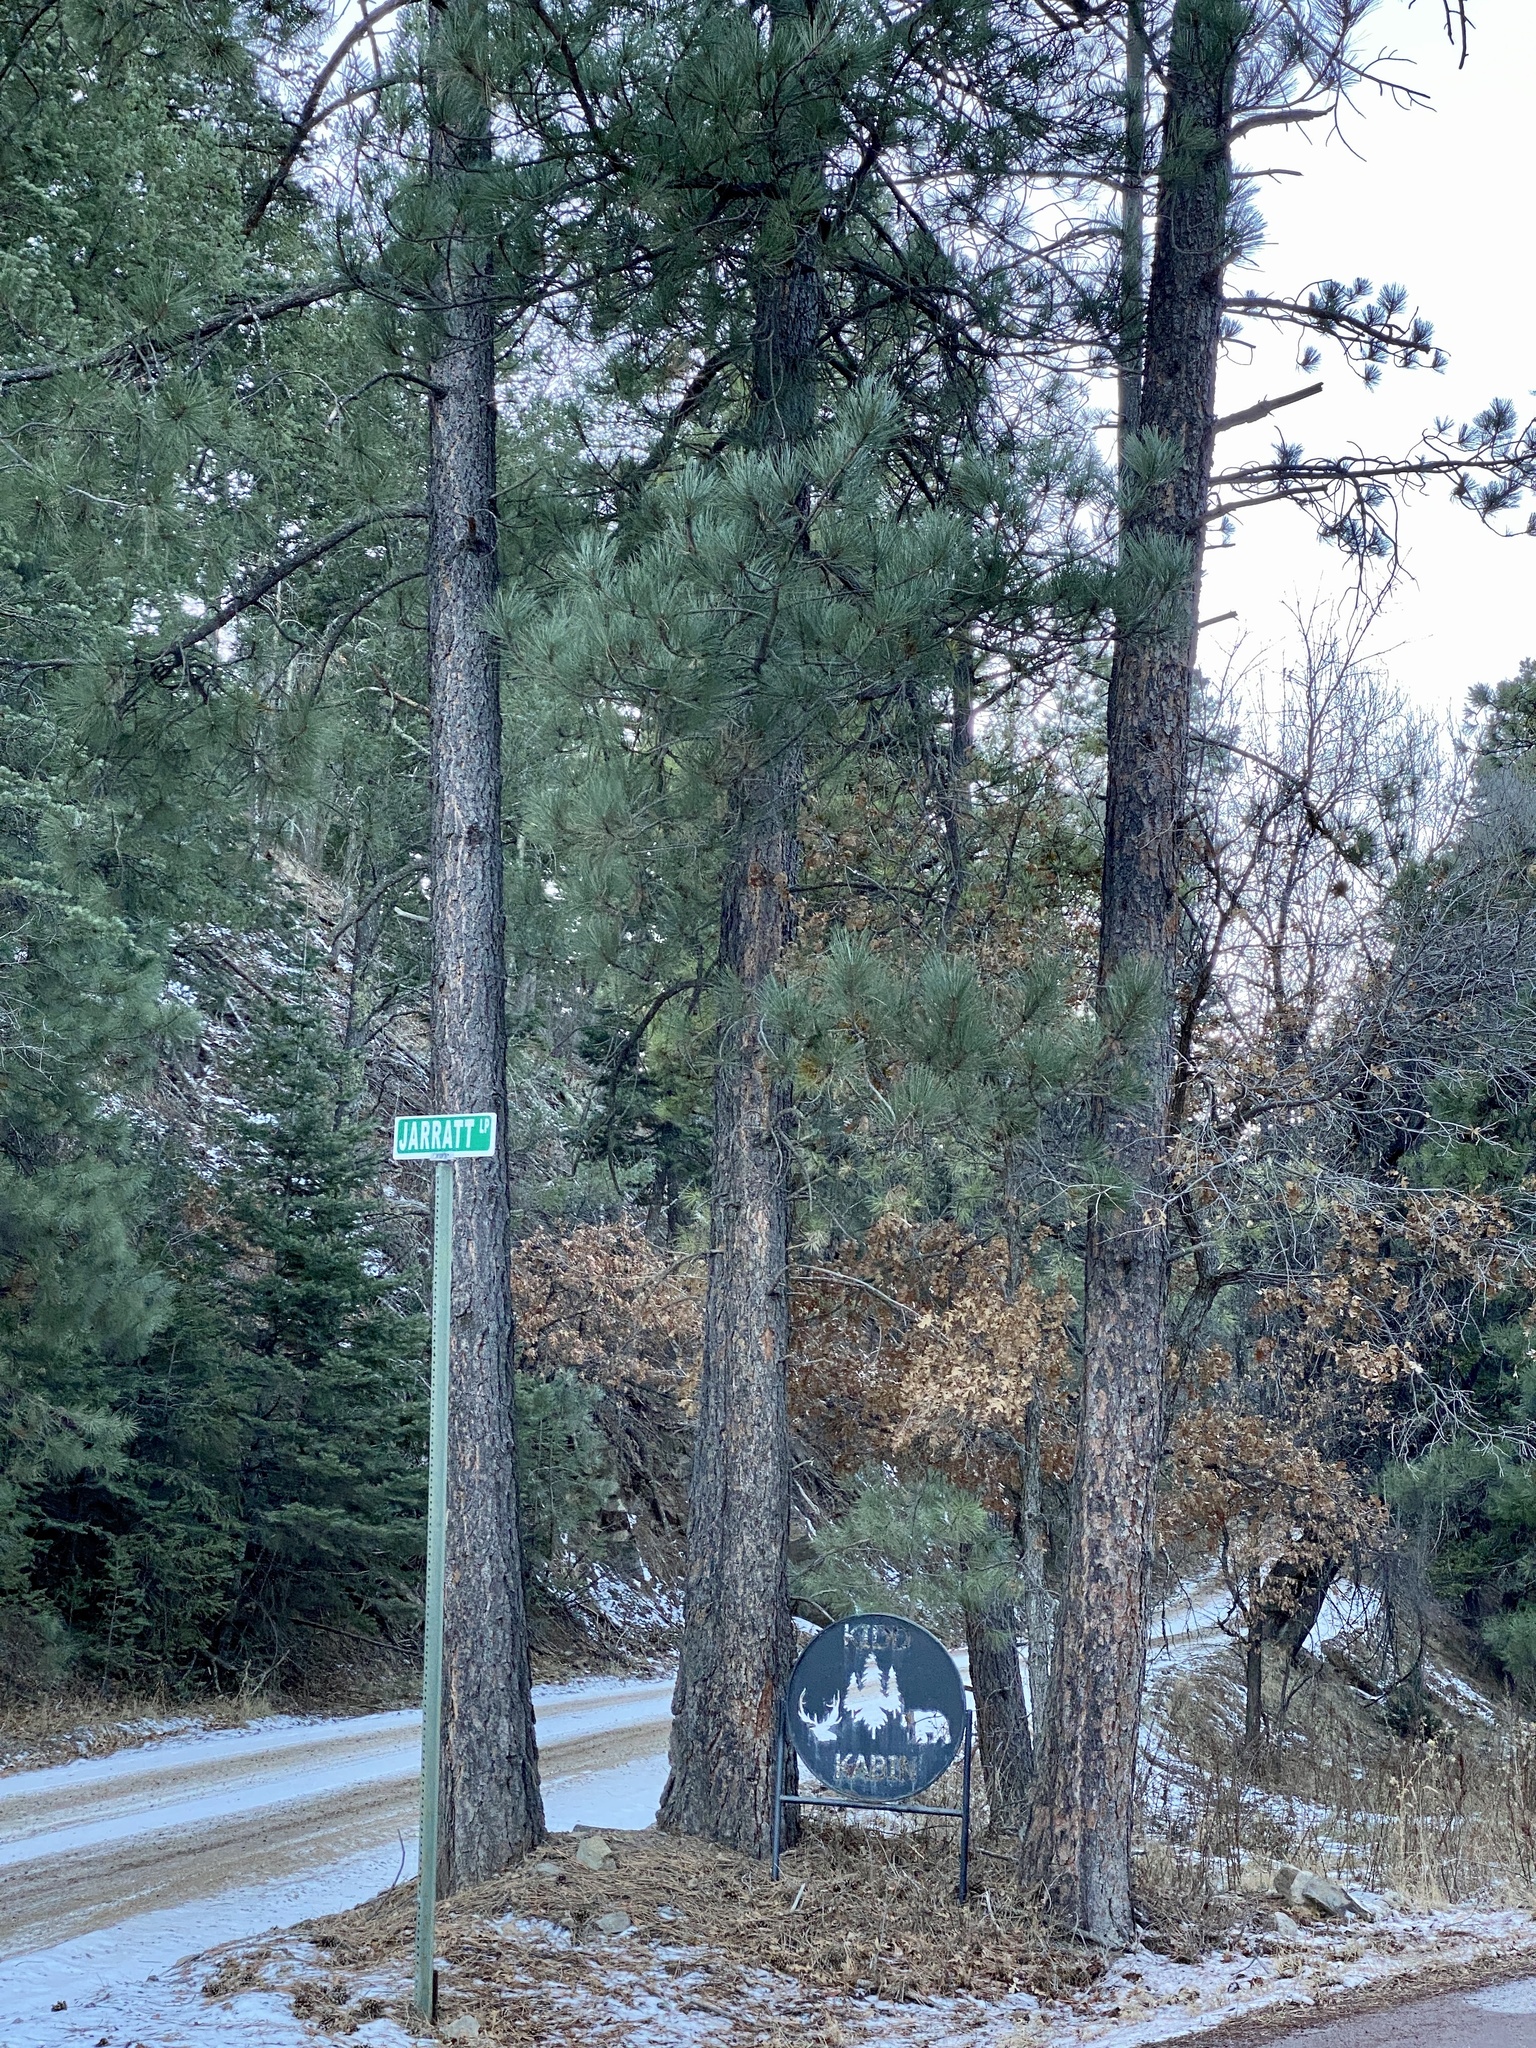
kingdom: Plantae
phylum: Tracheophyta
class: Pinopsida
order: Pinales
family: Pinaceae
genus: Pinus
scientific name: Pinus ponderosa
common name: Western yellow-pine
